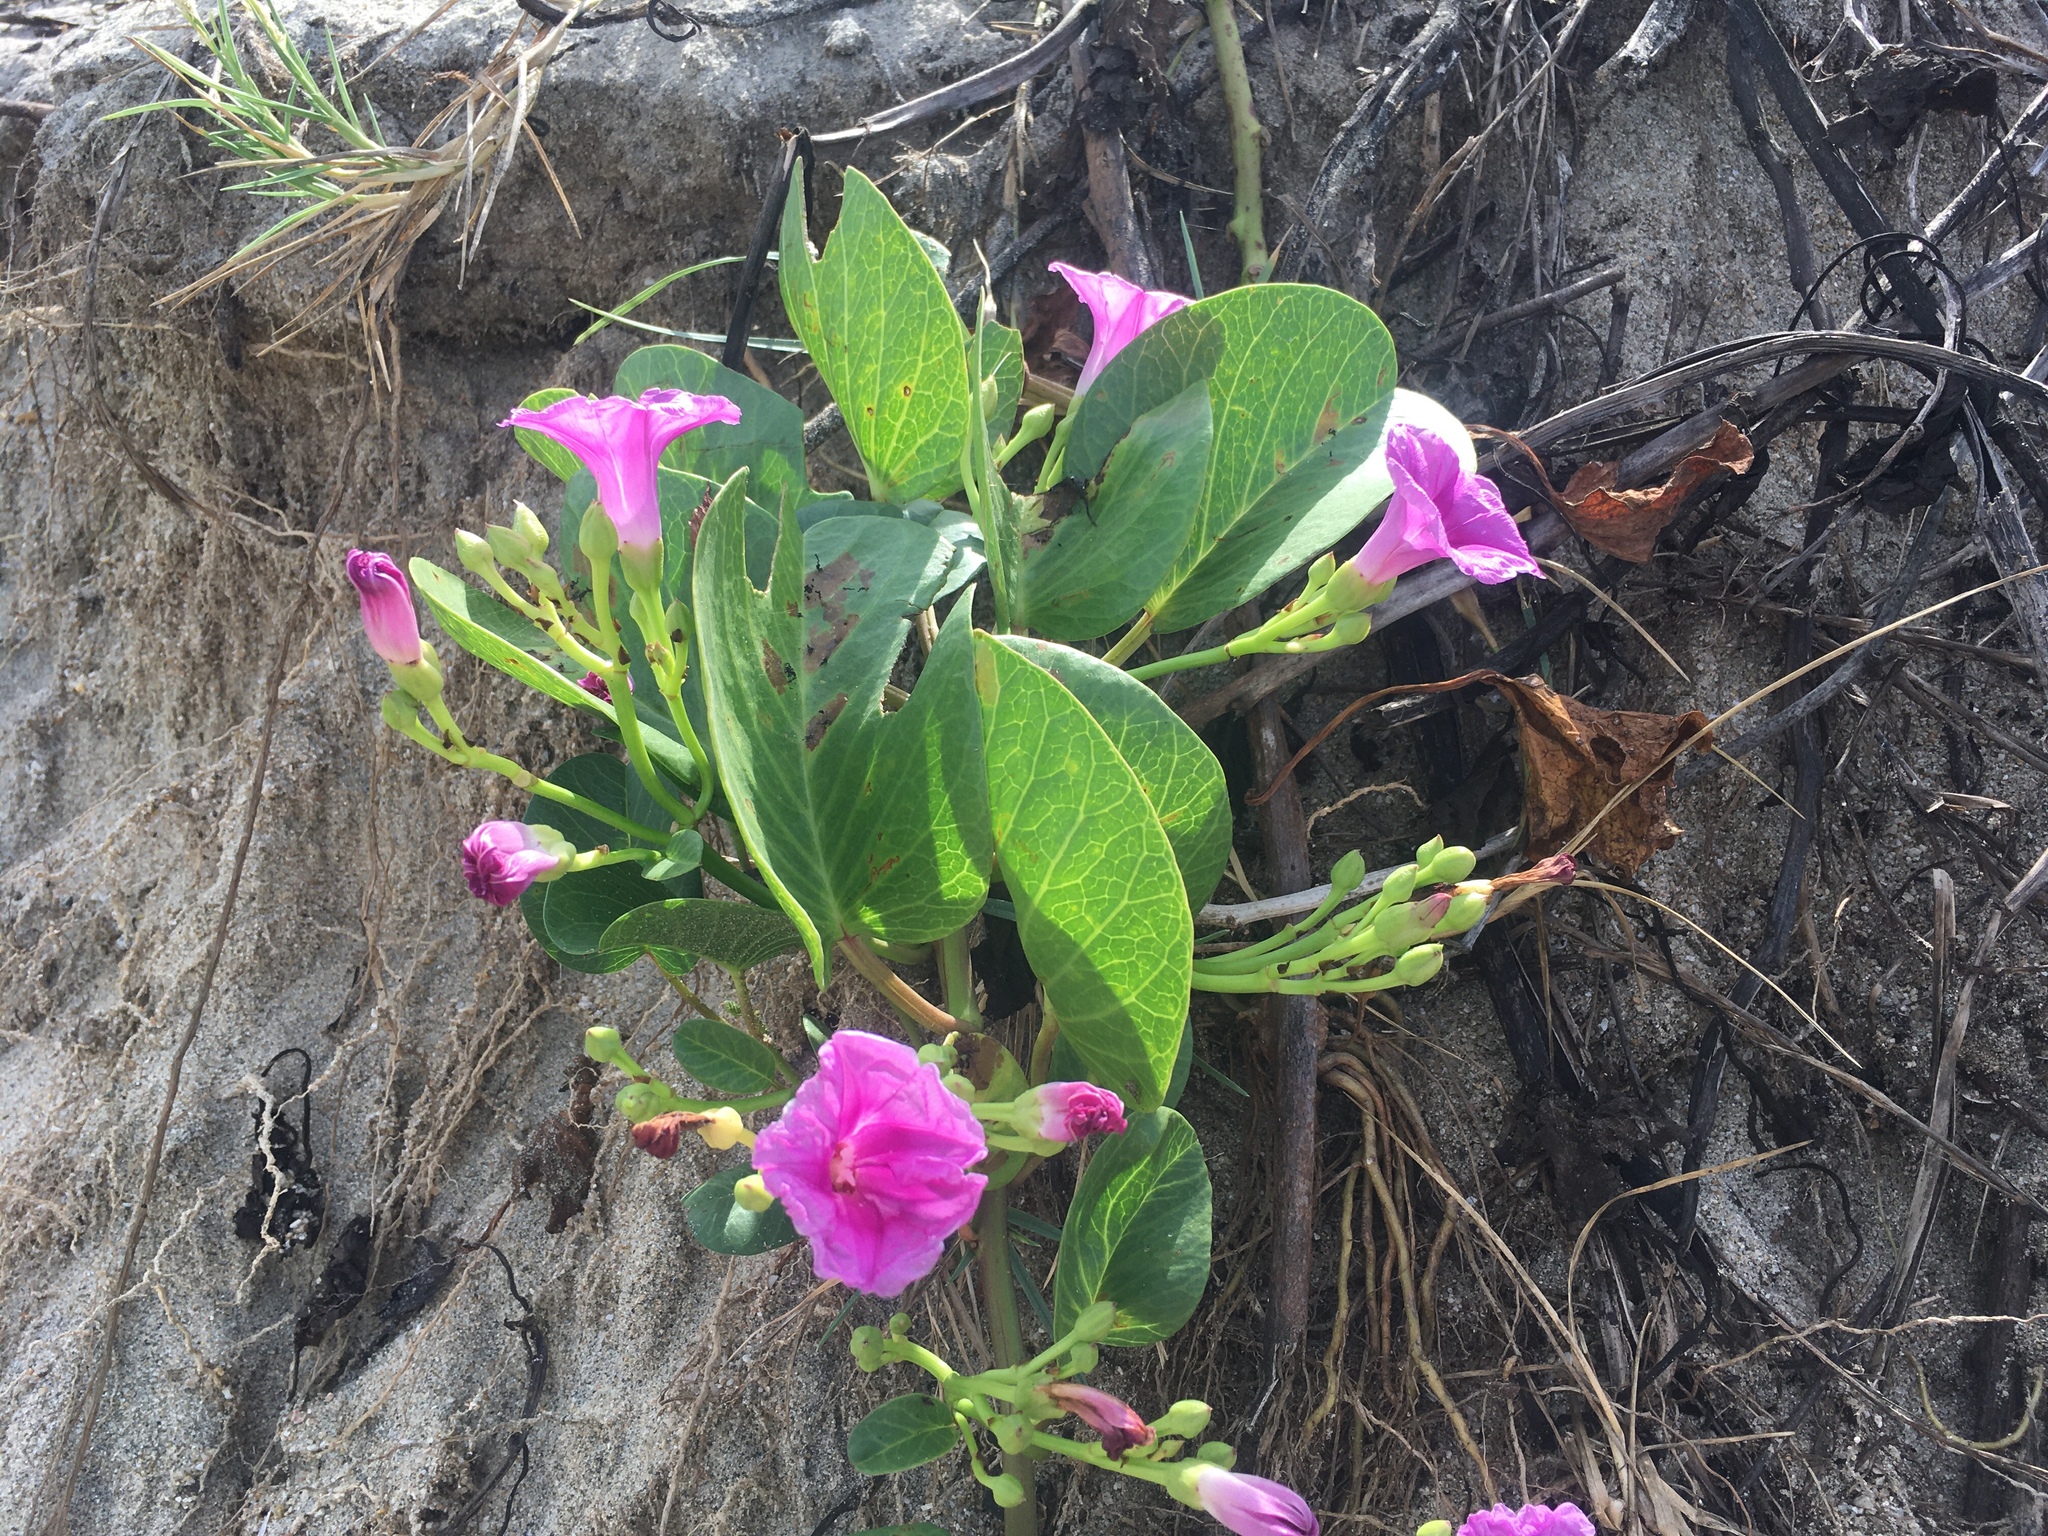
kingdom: Plantae
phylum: Tracheophyta
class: Magnoliopsida
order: Solanales
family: Convolvulaceae
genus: Ipomoea
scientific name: Ipomoea pes-caprae
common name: Beach morning glory
